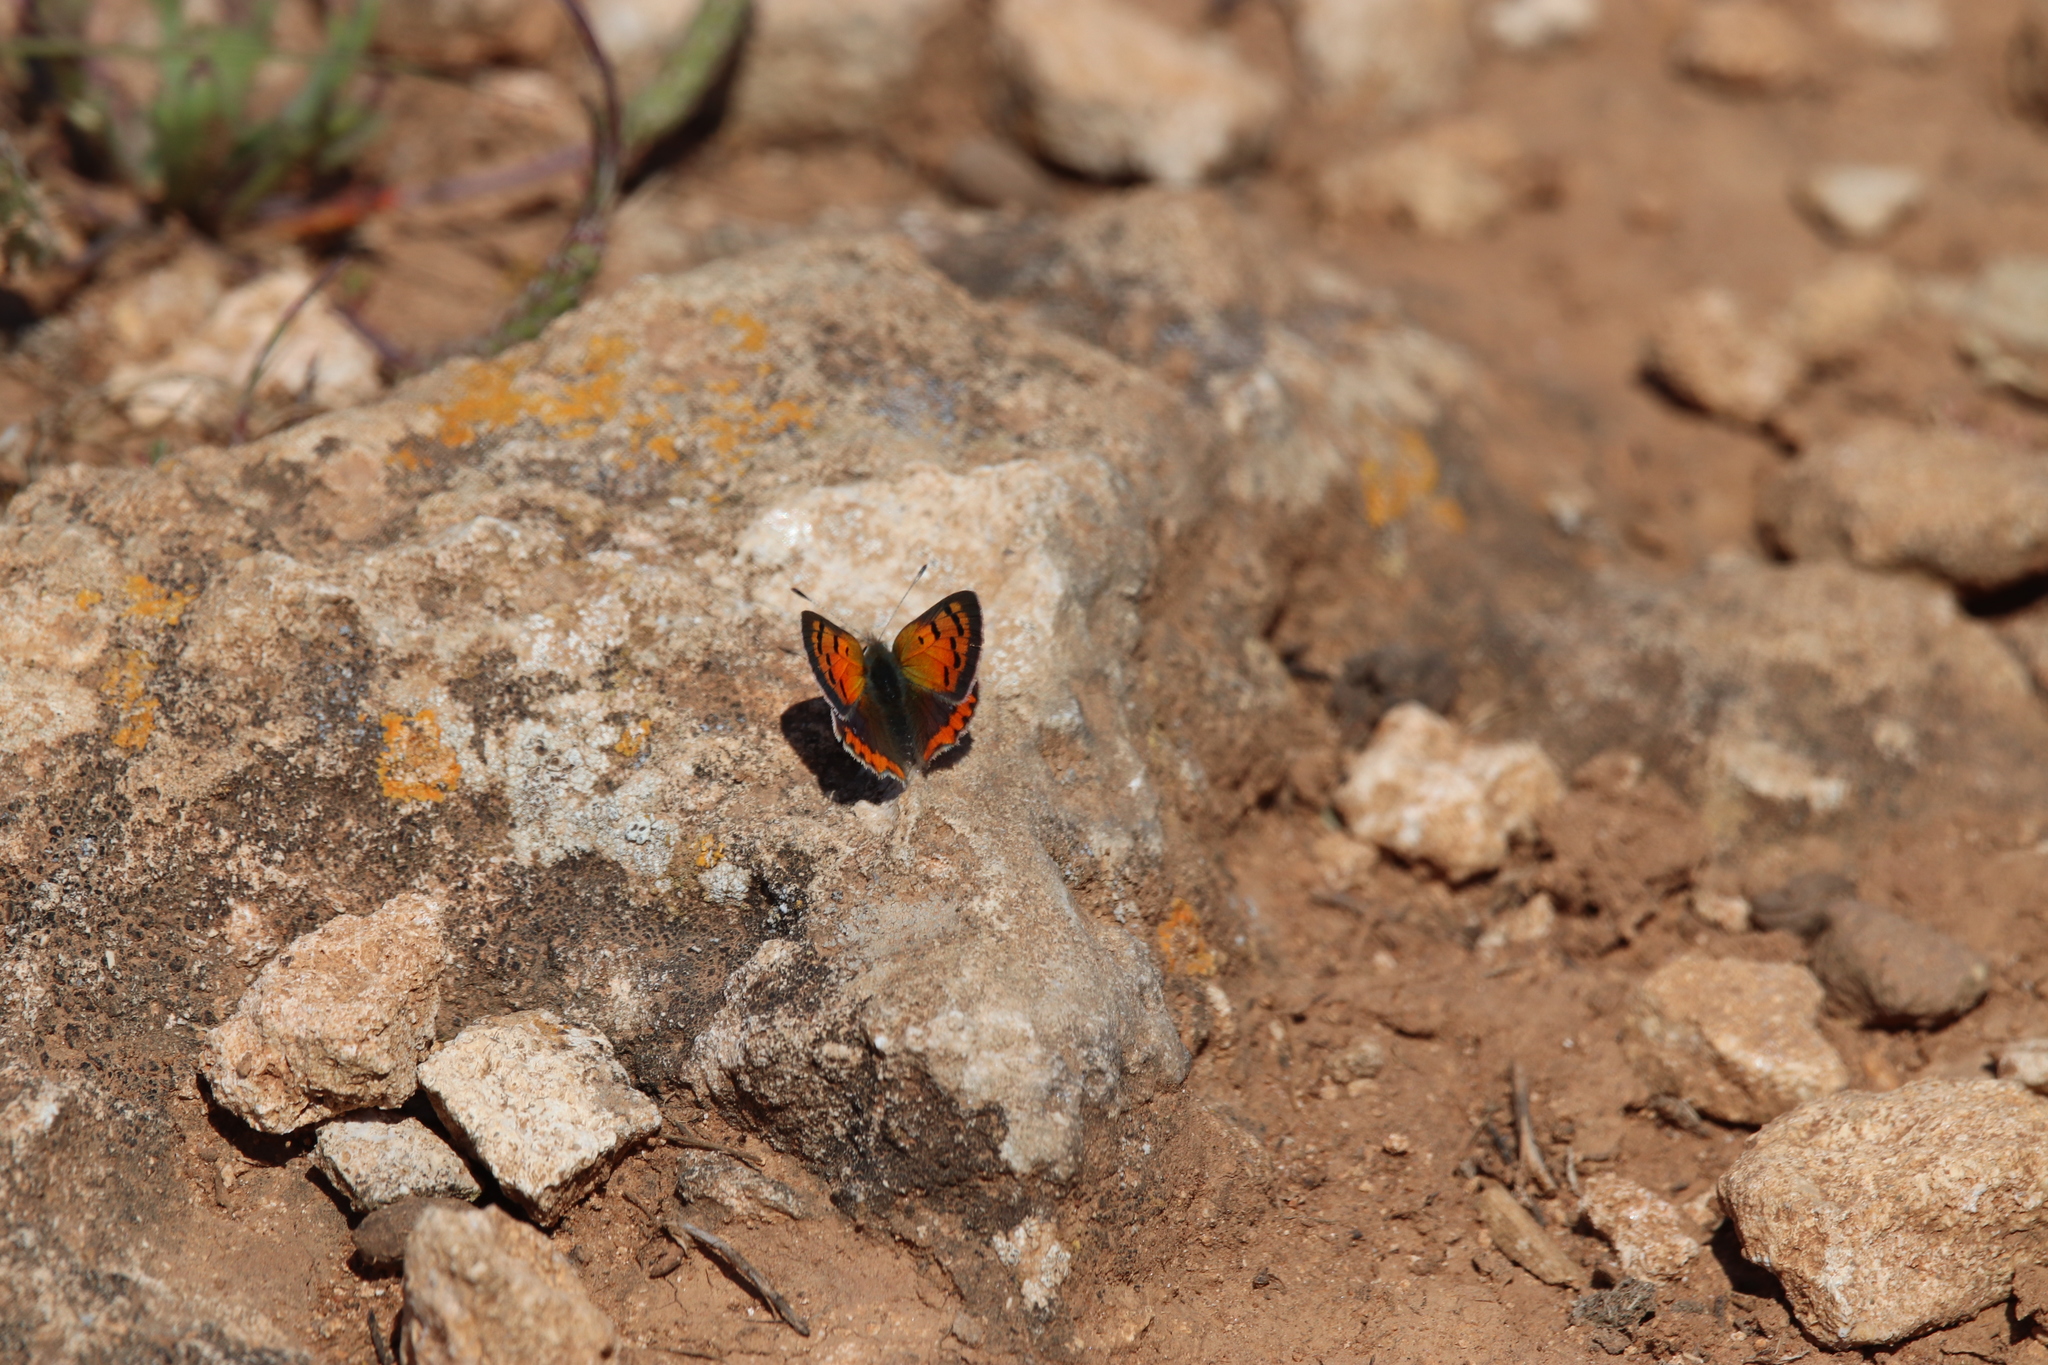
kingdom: Animalia
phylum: Arthropoda
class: Insecta
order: Lepidoptera
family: Lycaenidae
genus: Lycaena
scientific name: Lycaena phlaeas
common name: Small copper
